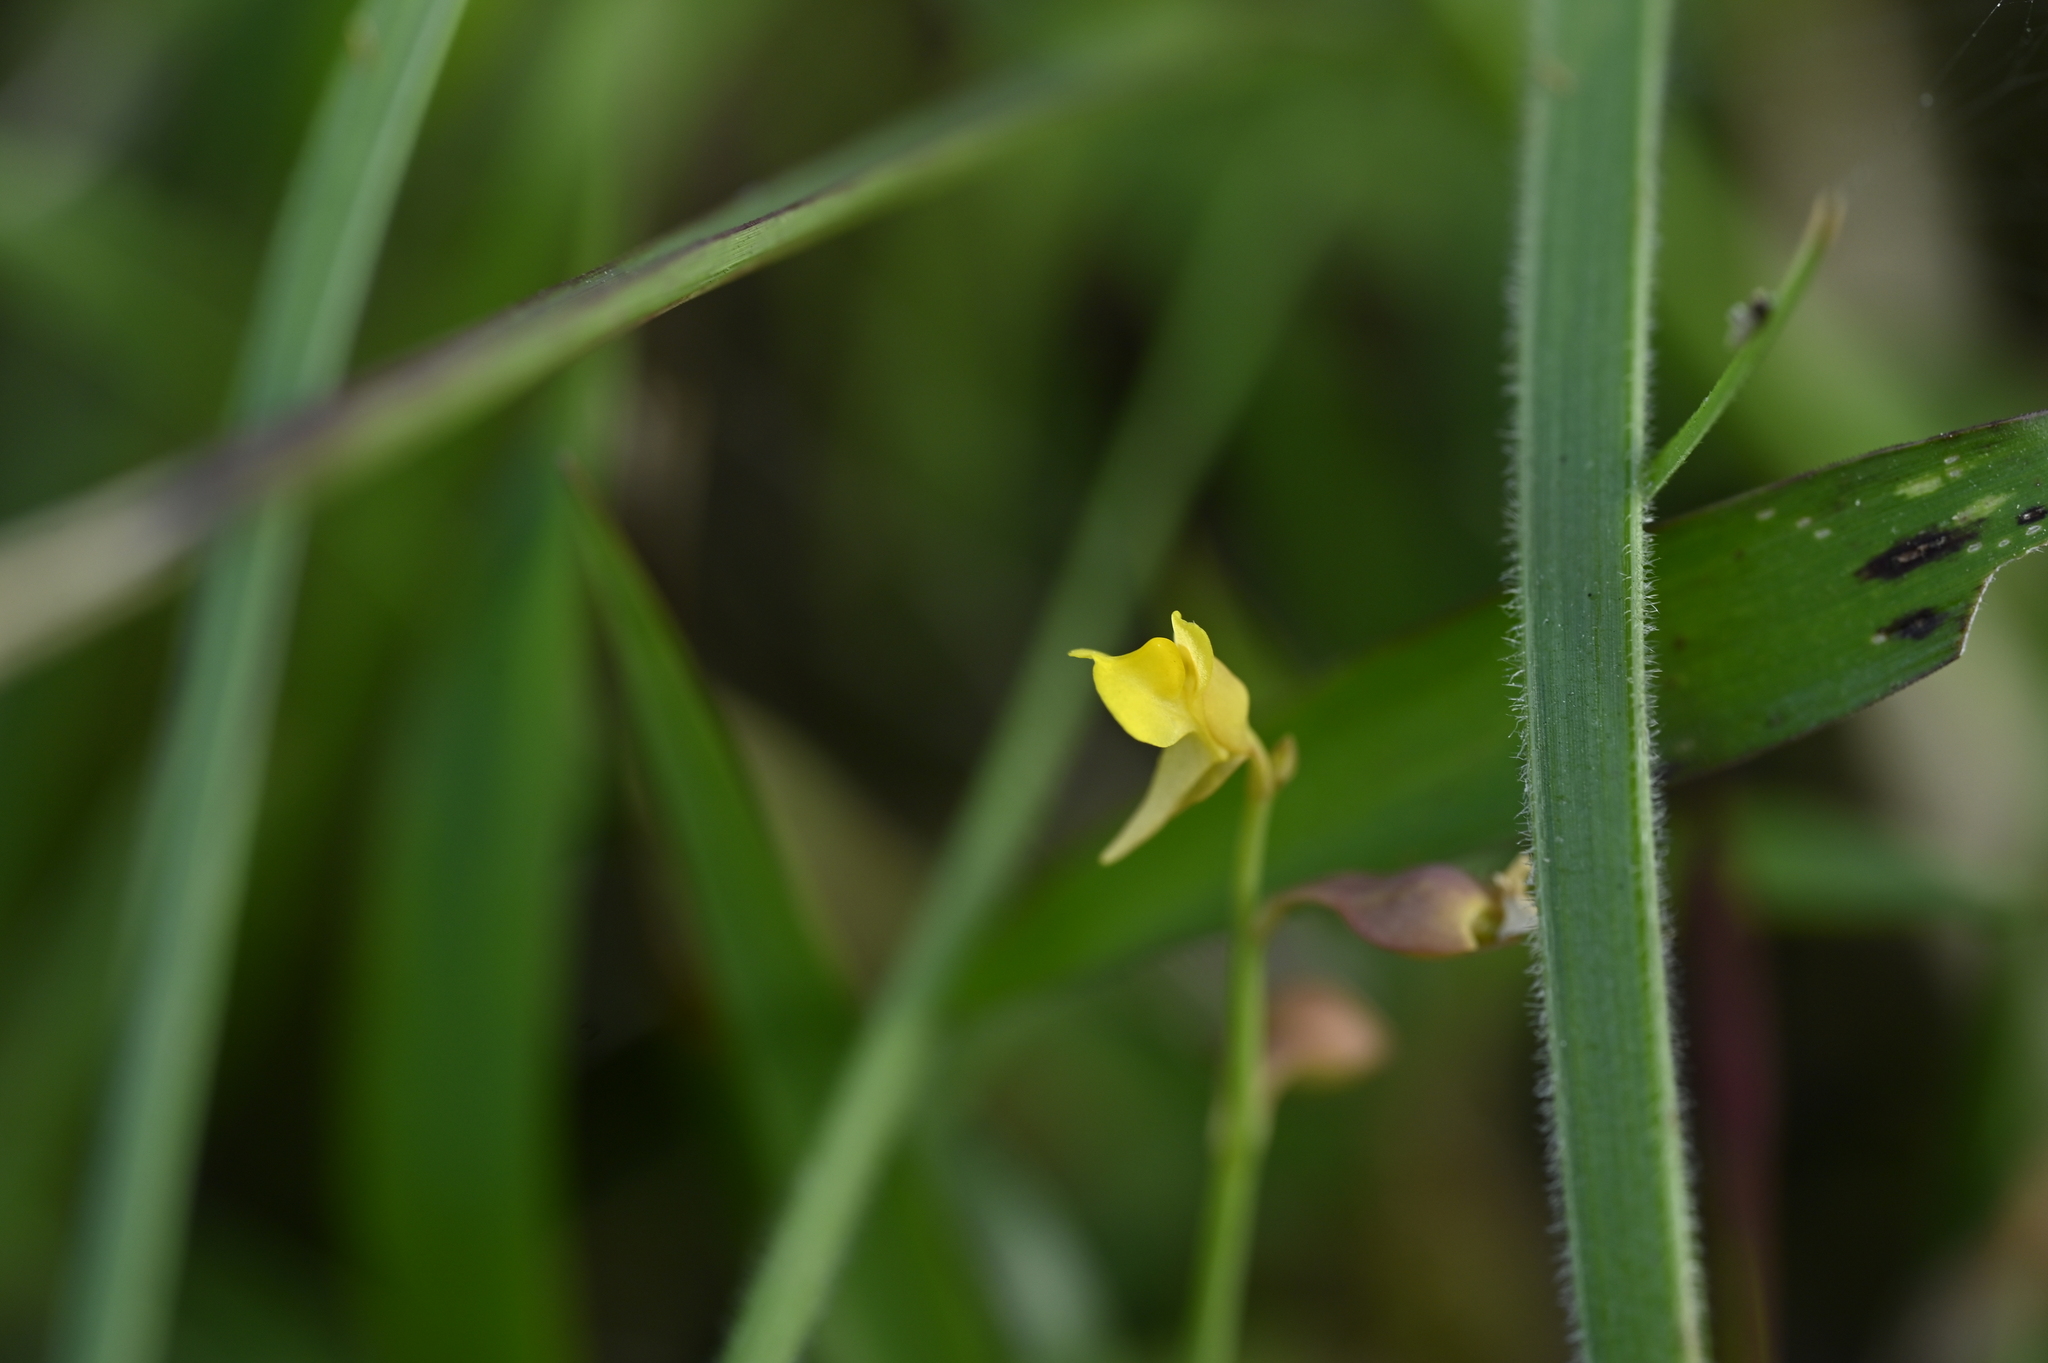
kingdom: Plantae
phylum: Tracheophyta
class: Magnoliopsida
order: Lamiales
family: Lentibulariaceae
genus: Utricularia
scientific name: Utricularia bifida
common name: Bifid bladderwort
